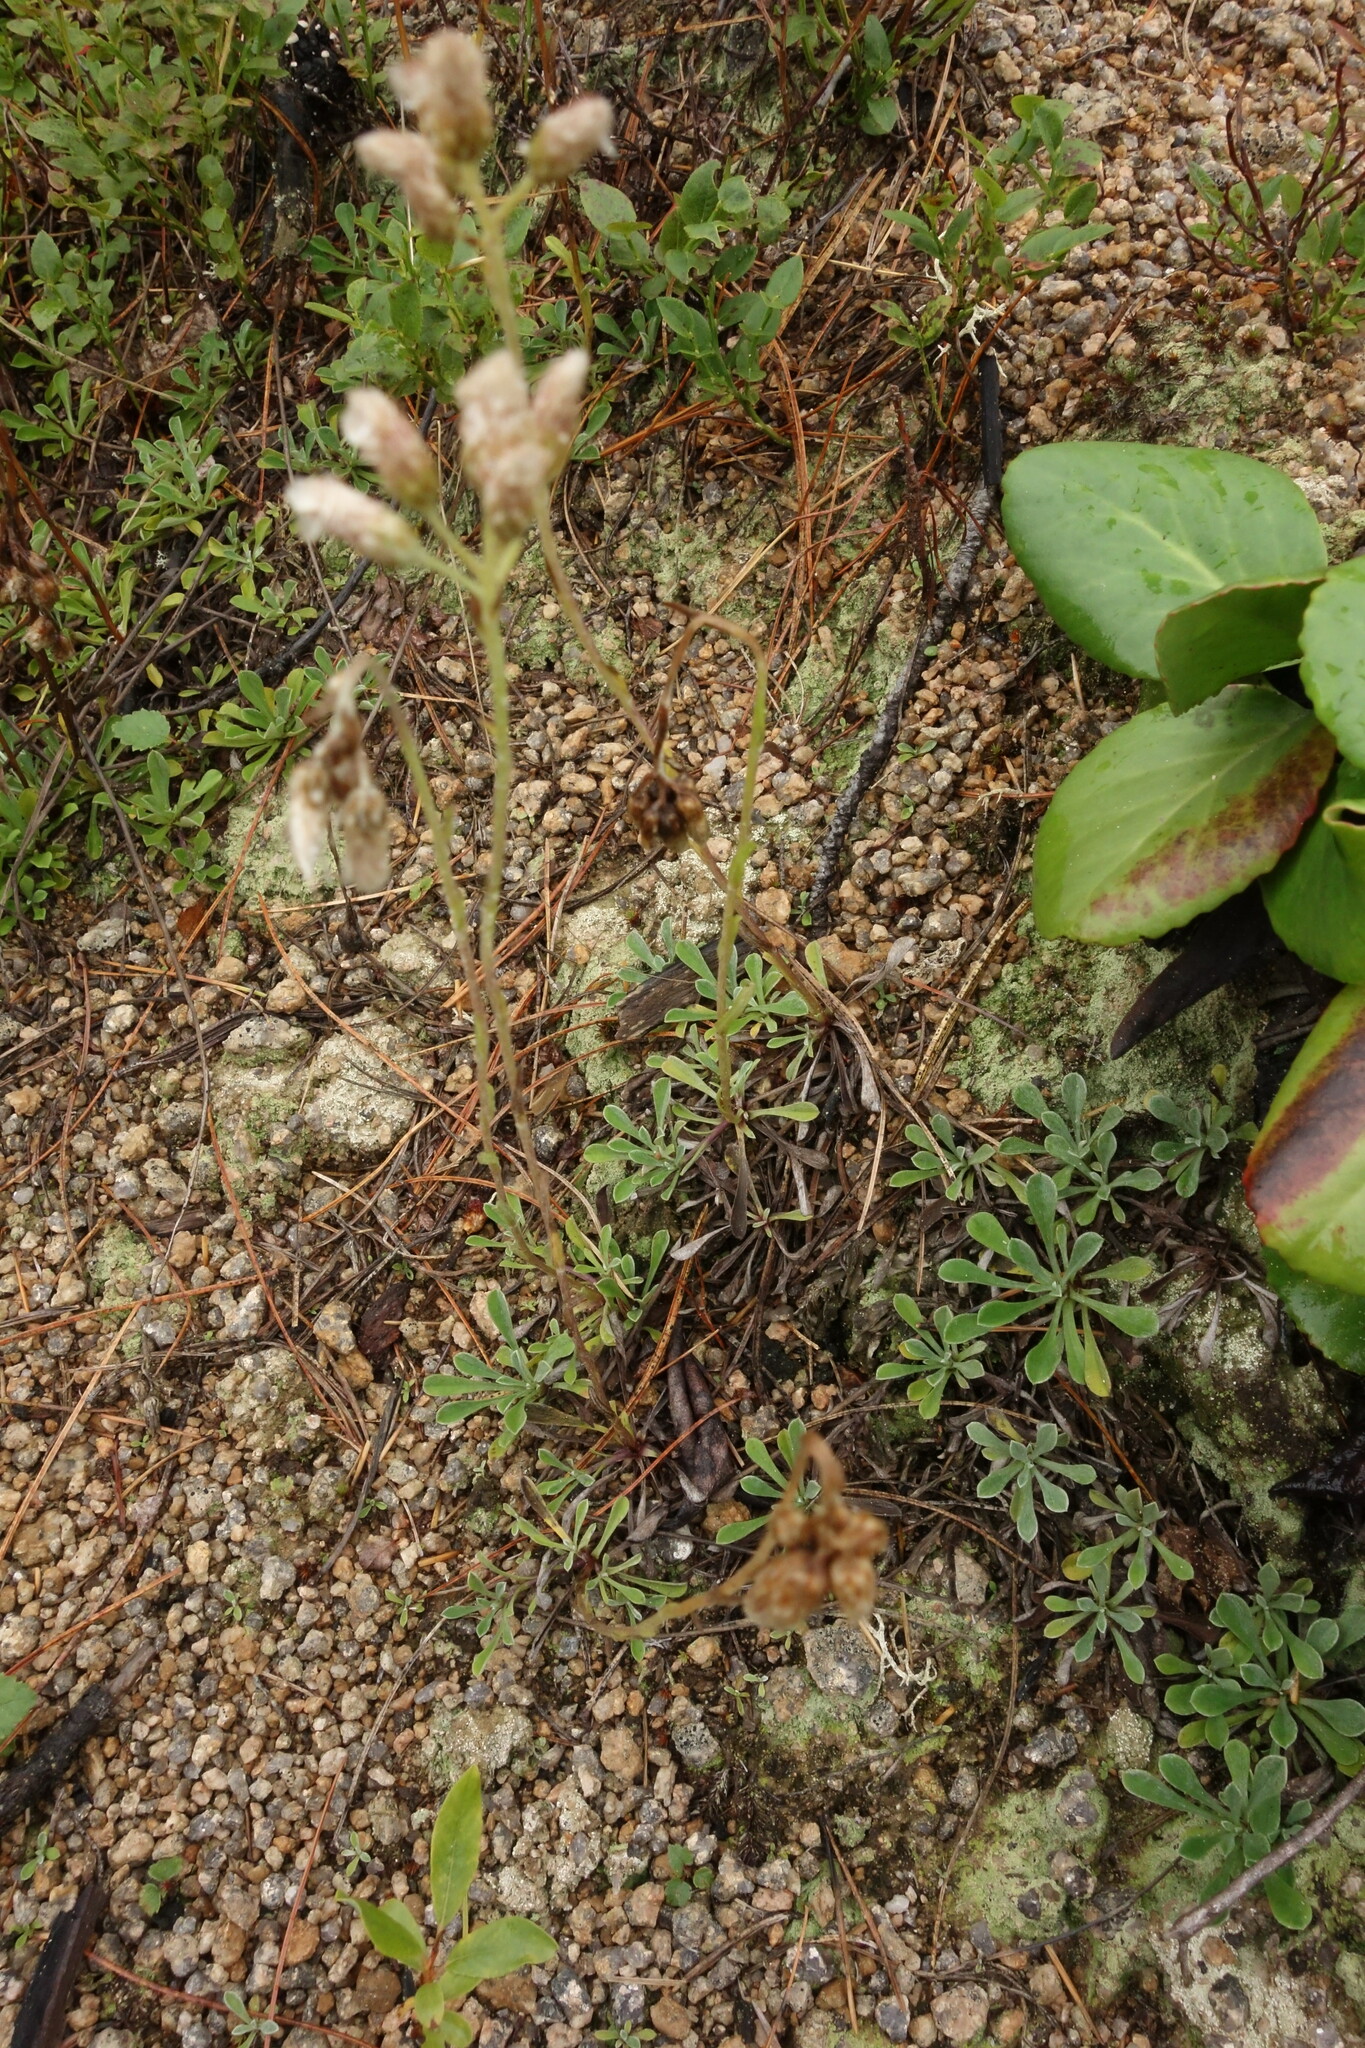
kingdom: Plantae
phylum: Tracheophyta
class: Magnoliopsida
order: Asterales
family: Asteraceae
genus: Antennaria
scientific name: Antennaria dioica
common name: Mountain everlasting
